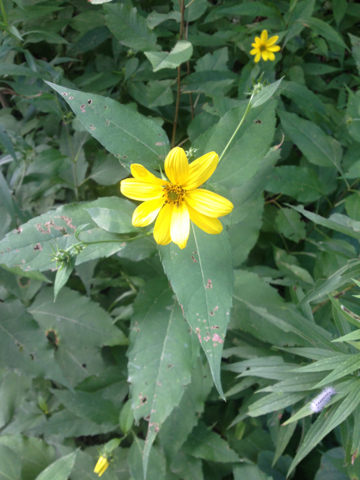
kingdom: Plantae
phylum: Tracheophyta
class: Magnoliopsida
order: Asterales
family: Asteraceae
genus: Helianthus
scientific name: Helianthus divaricatus
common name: Divergent sunflower
